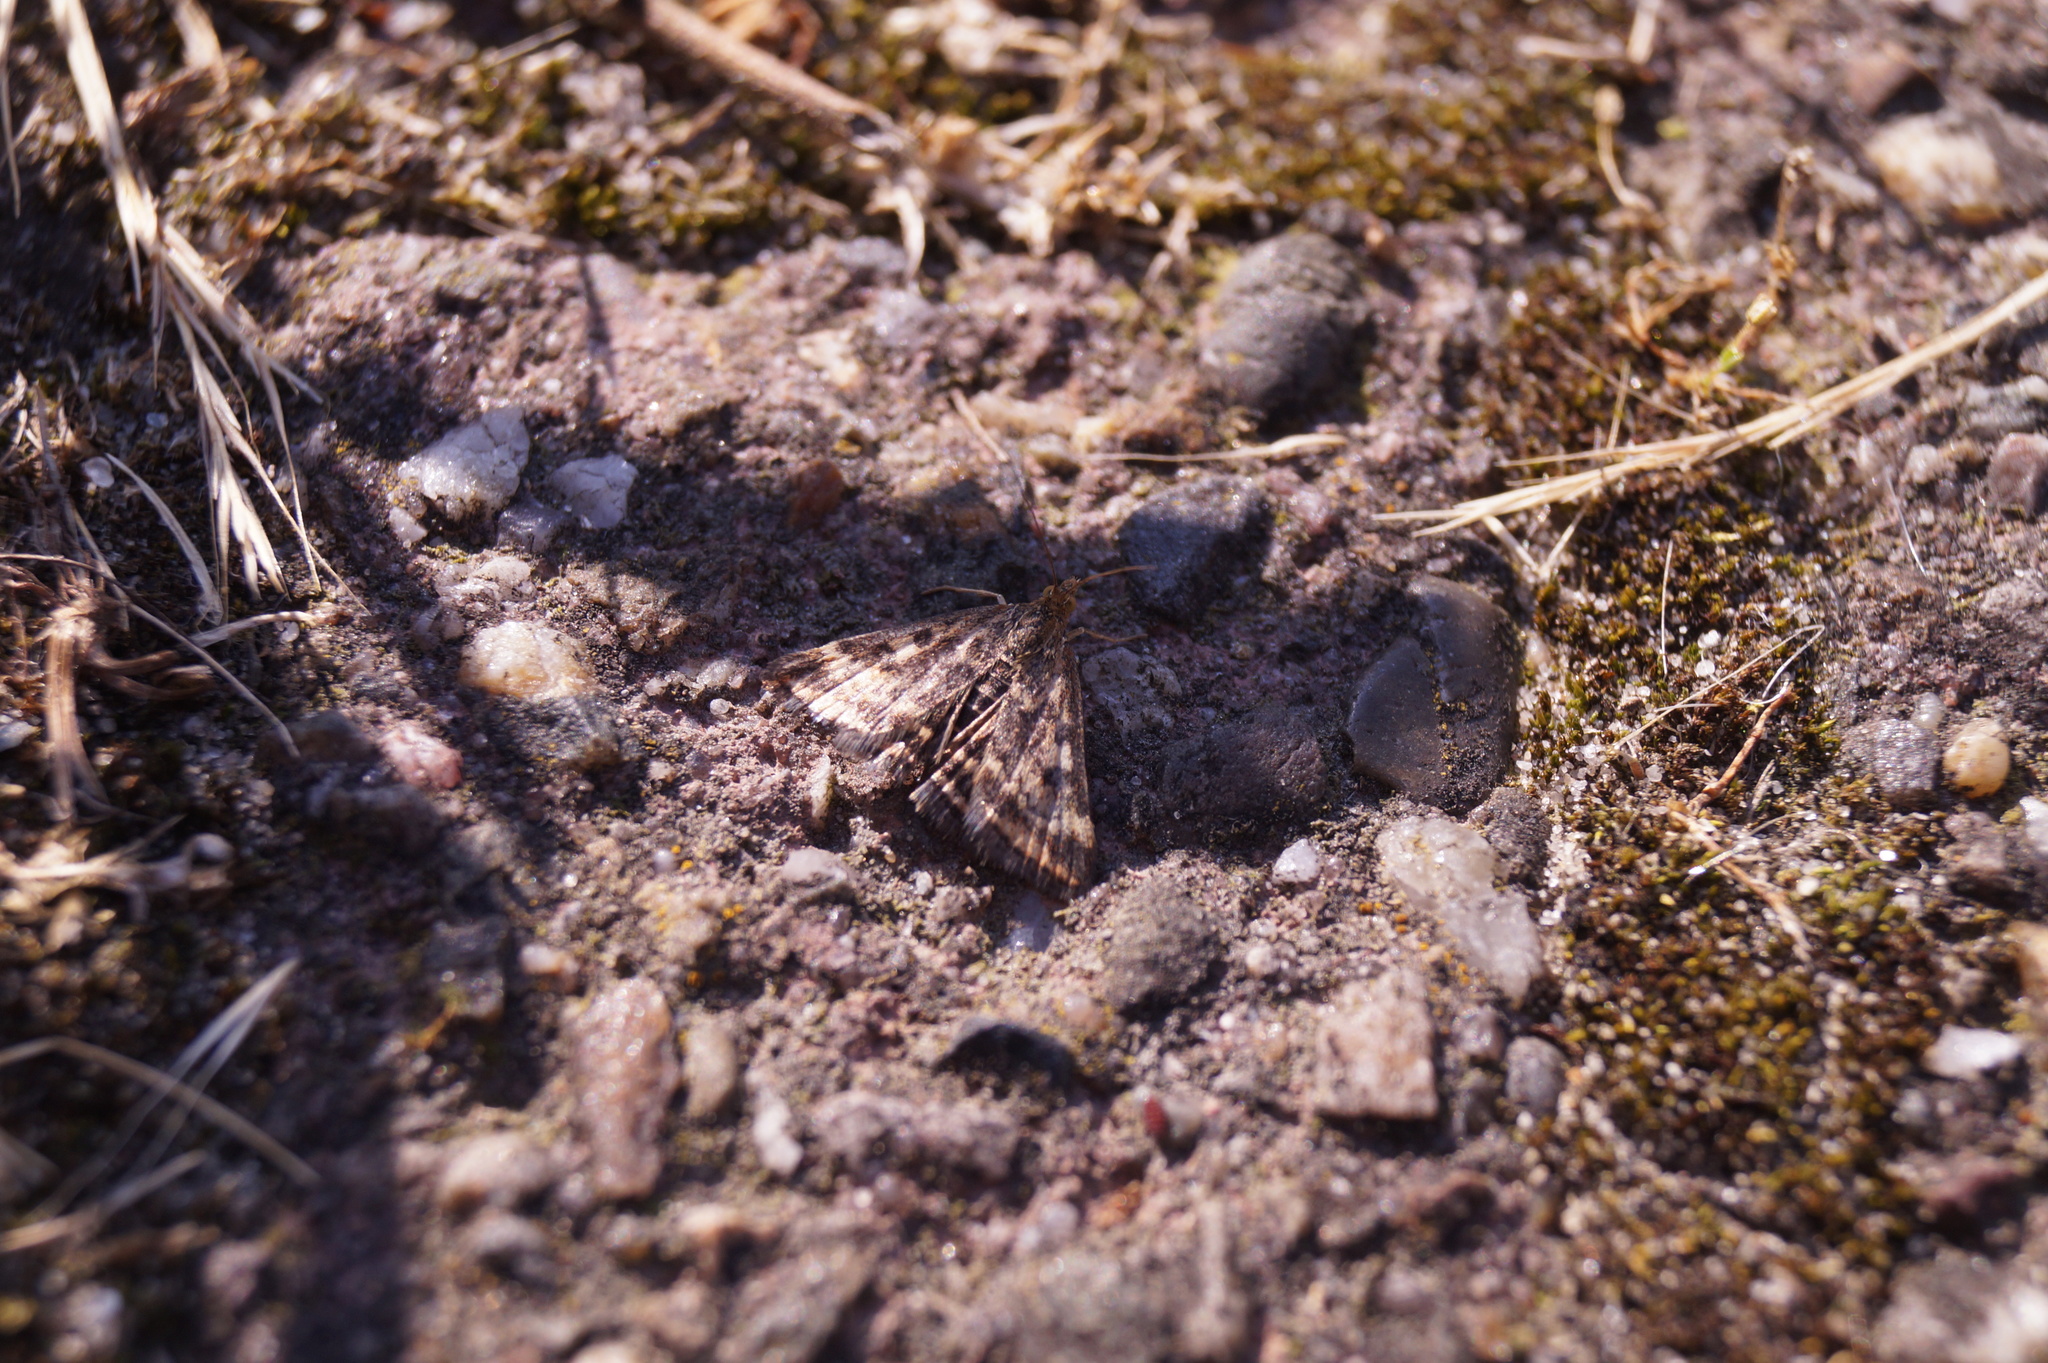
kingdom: Animalia
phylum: Arthropoda
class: Insecta
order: Lepidoptera
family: Crambidae
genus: Pyrausta
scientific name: Pyrausta despicata
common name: Straw-barred pearl
